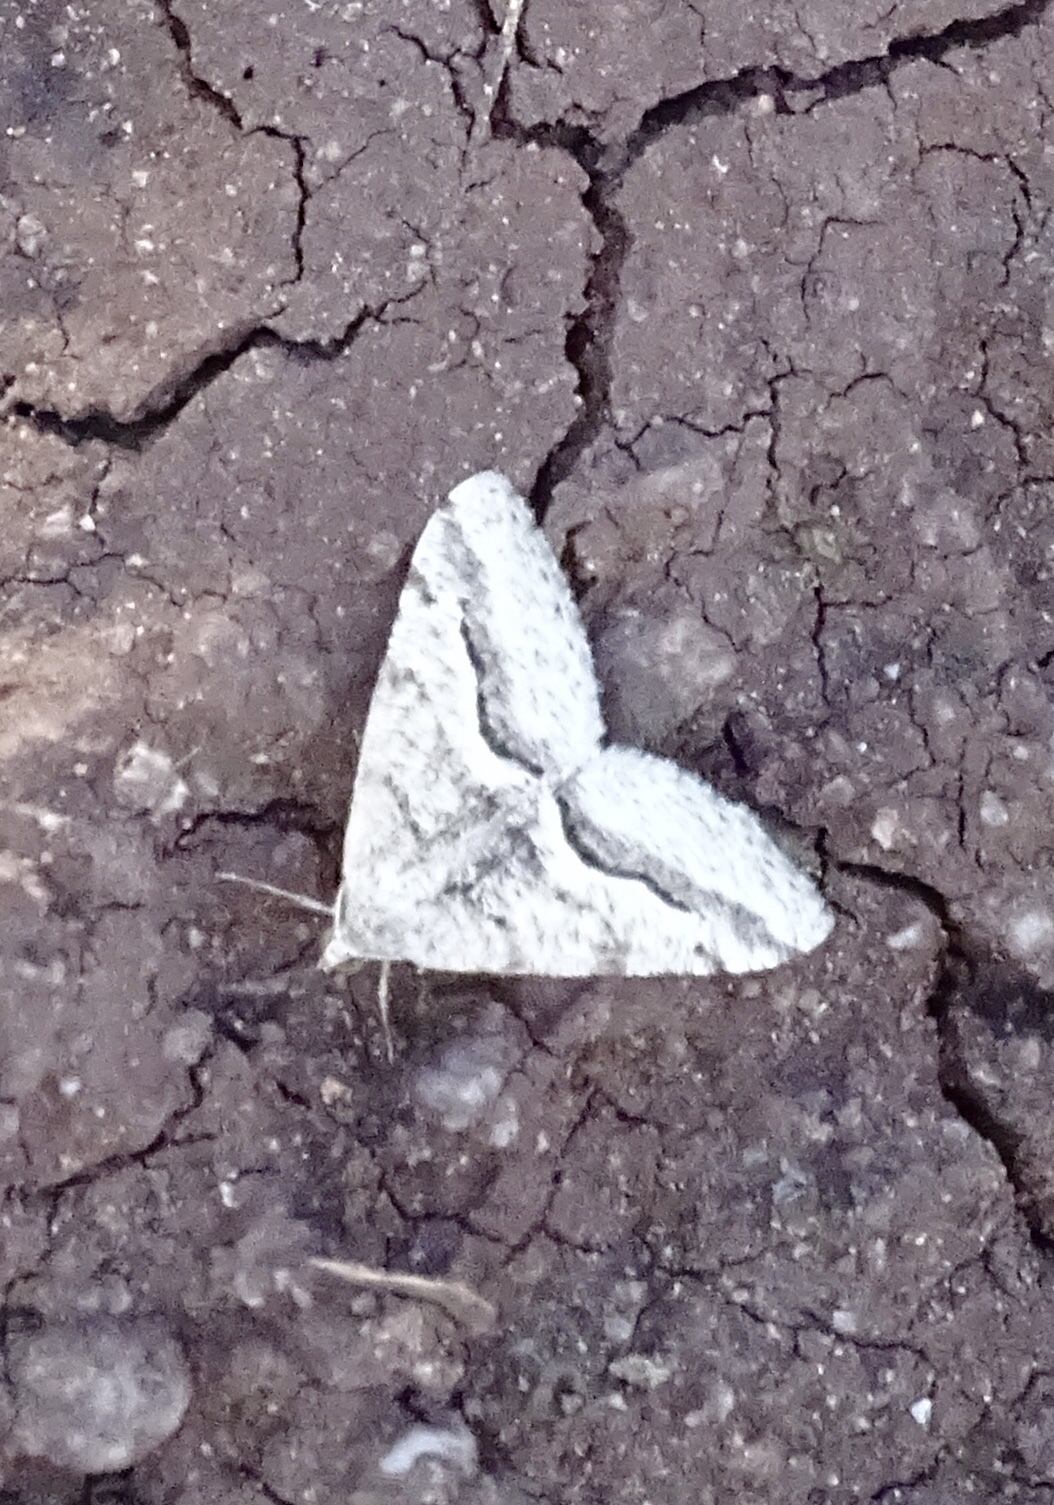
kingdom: Animalia
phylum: Arthropoda
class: Insecta
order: Lepidoptera
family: Geometridae
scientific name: Geometridae
